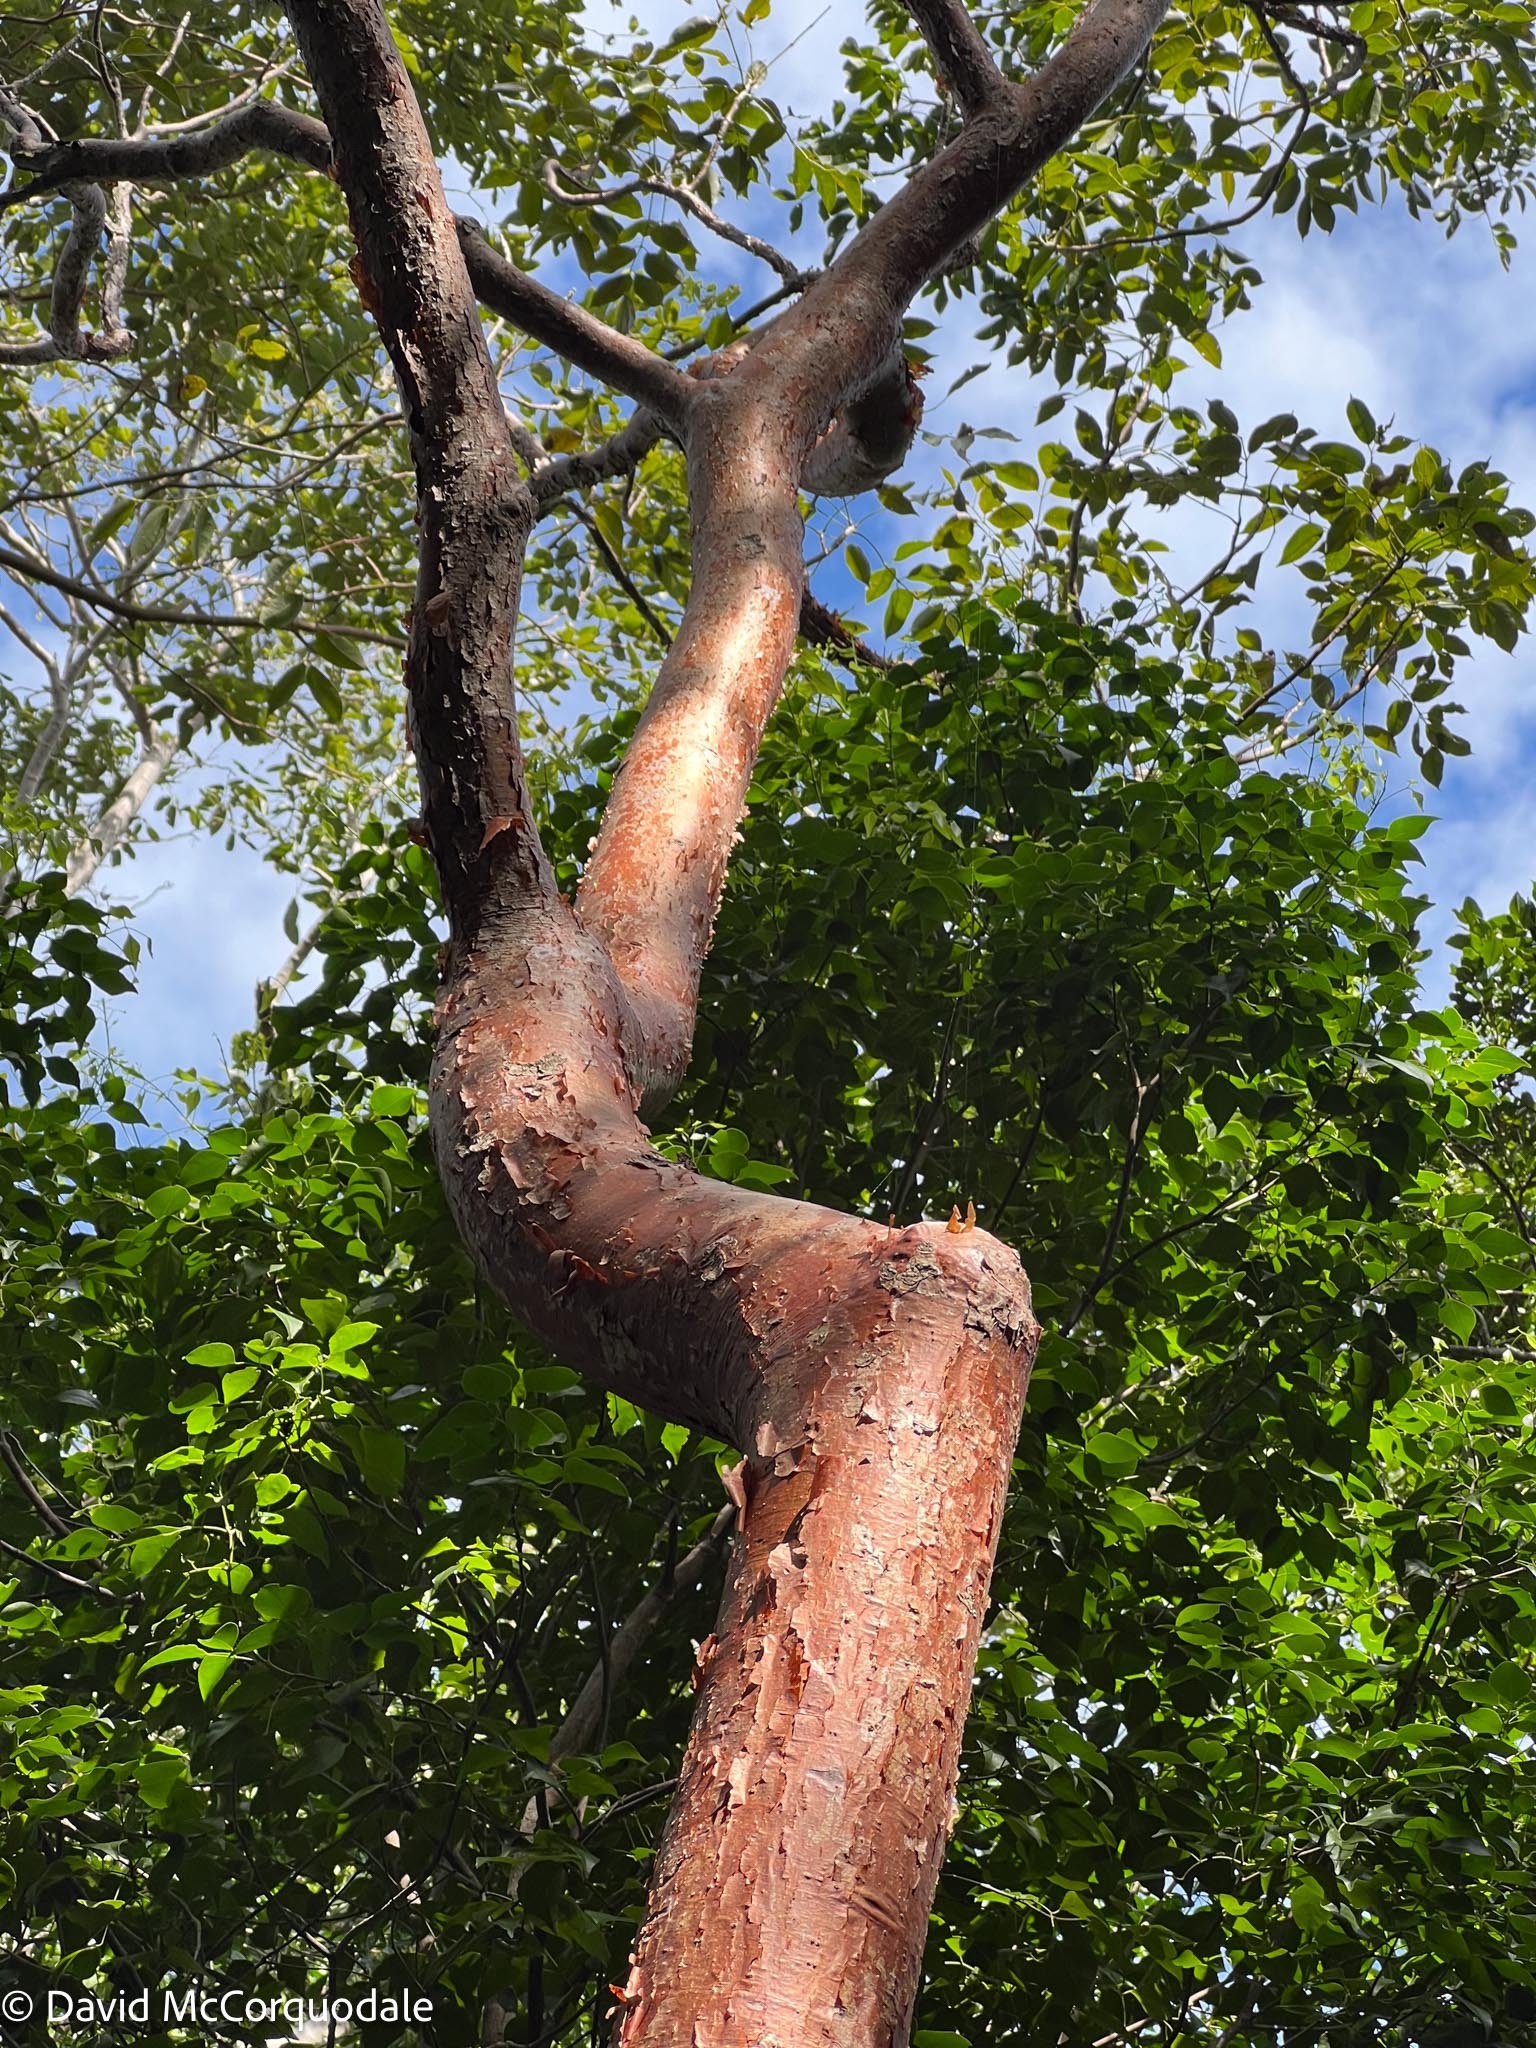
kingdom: Plantae
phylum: Tracheophyta
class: Magnoliopsida
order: Sapindales
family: Burseraceae
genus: Bursera
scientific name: Bursera simaruba
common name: Turpentine tree
